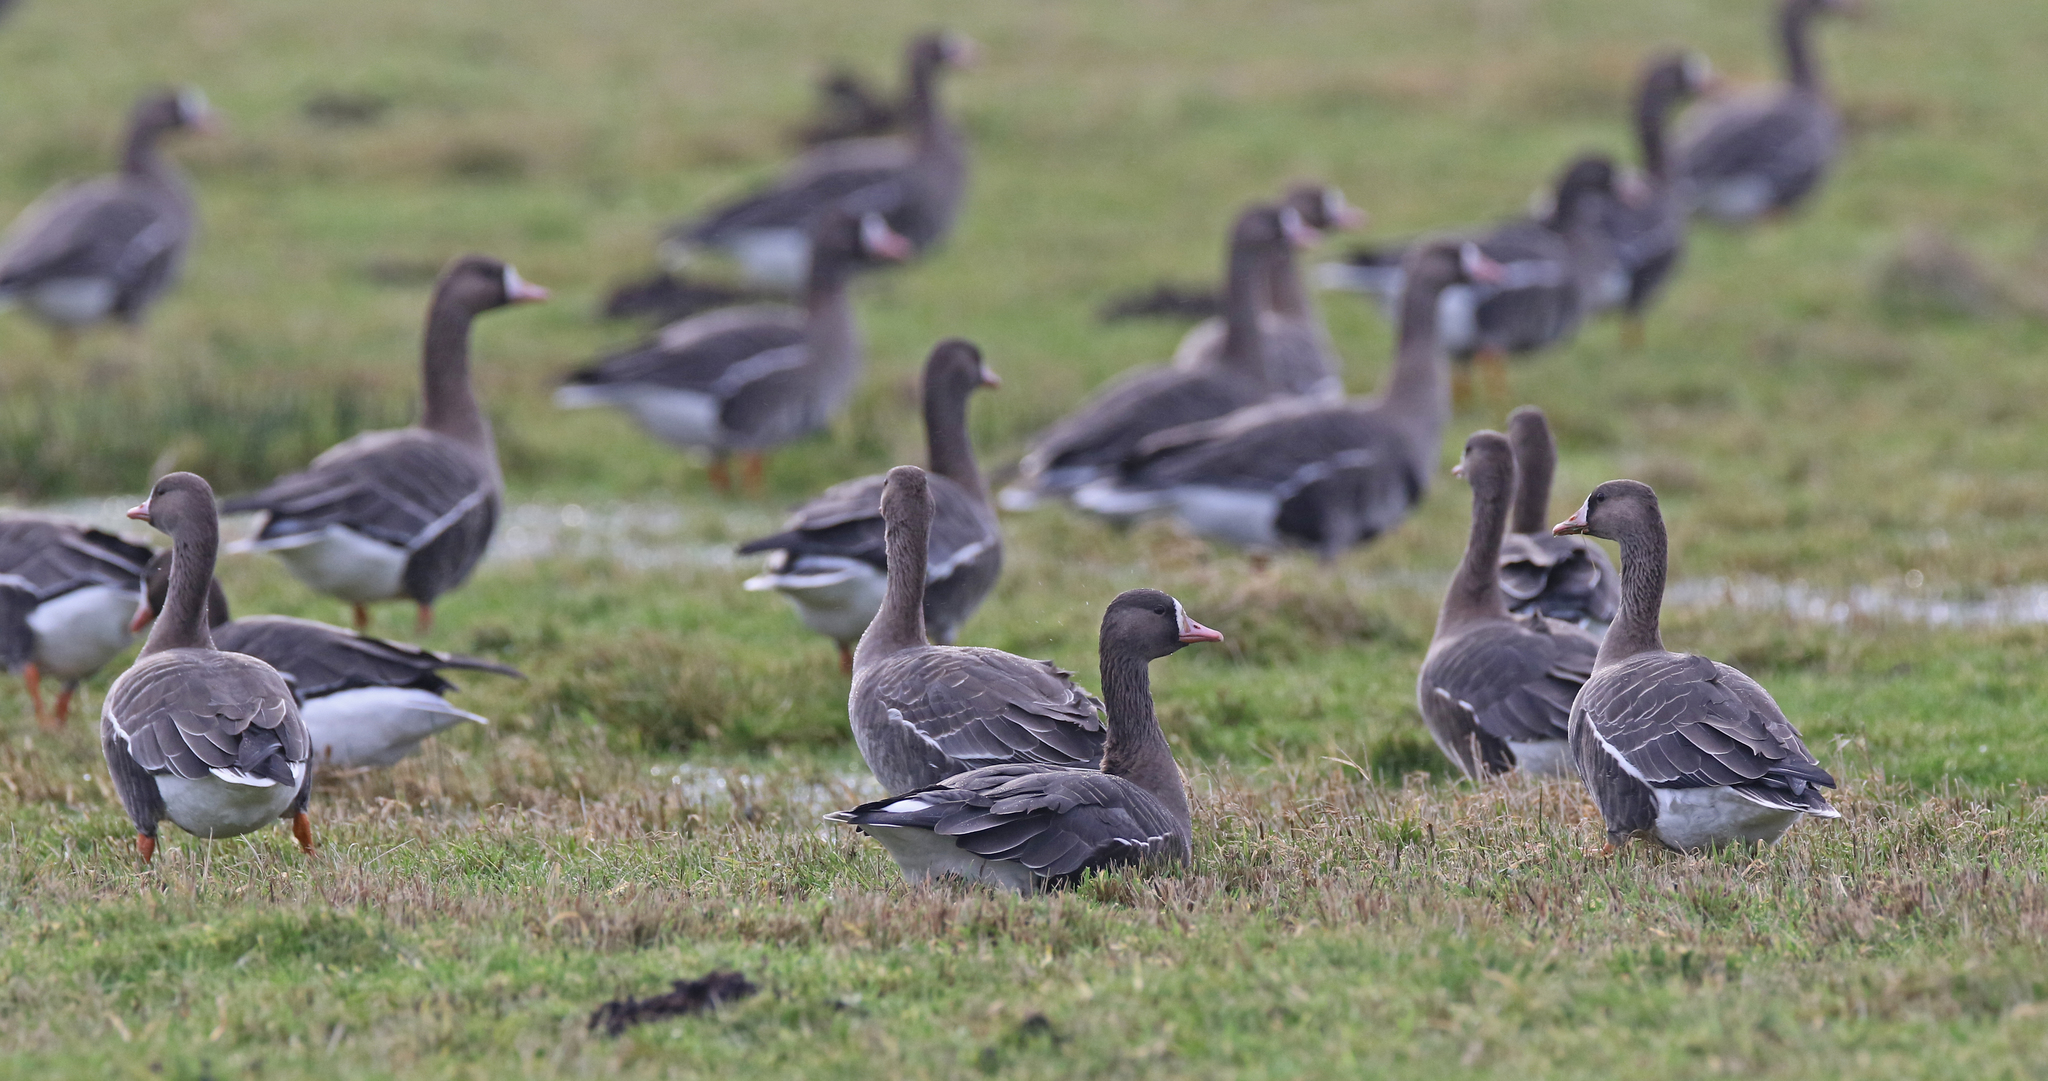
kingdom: Animalia
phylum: Chordata
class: Aves
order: Anseriformes
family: Anatidae
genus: Anser
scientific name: Anser albifrons
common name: Greater white-fronted goose
